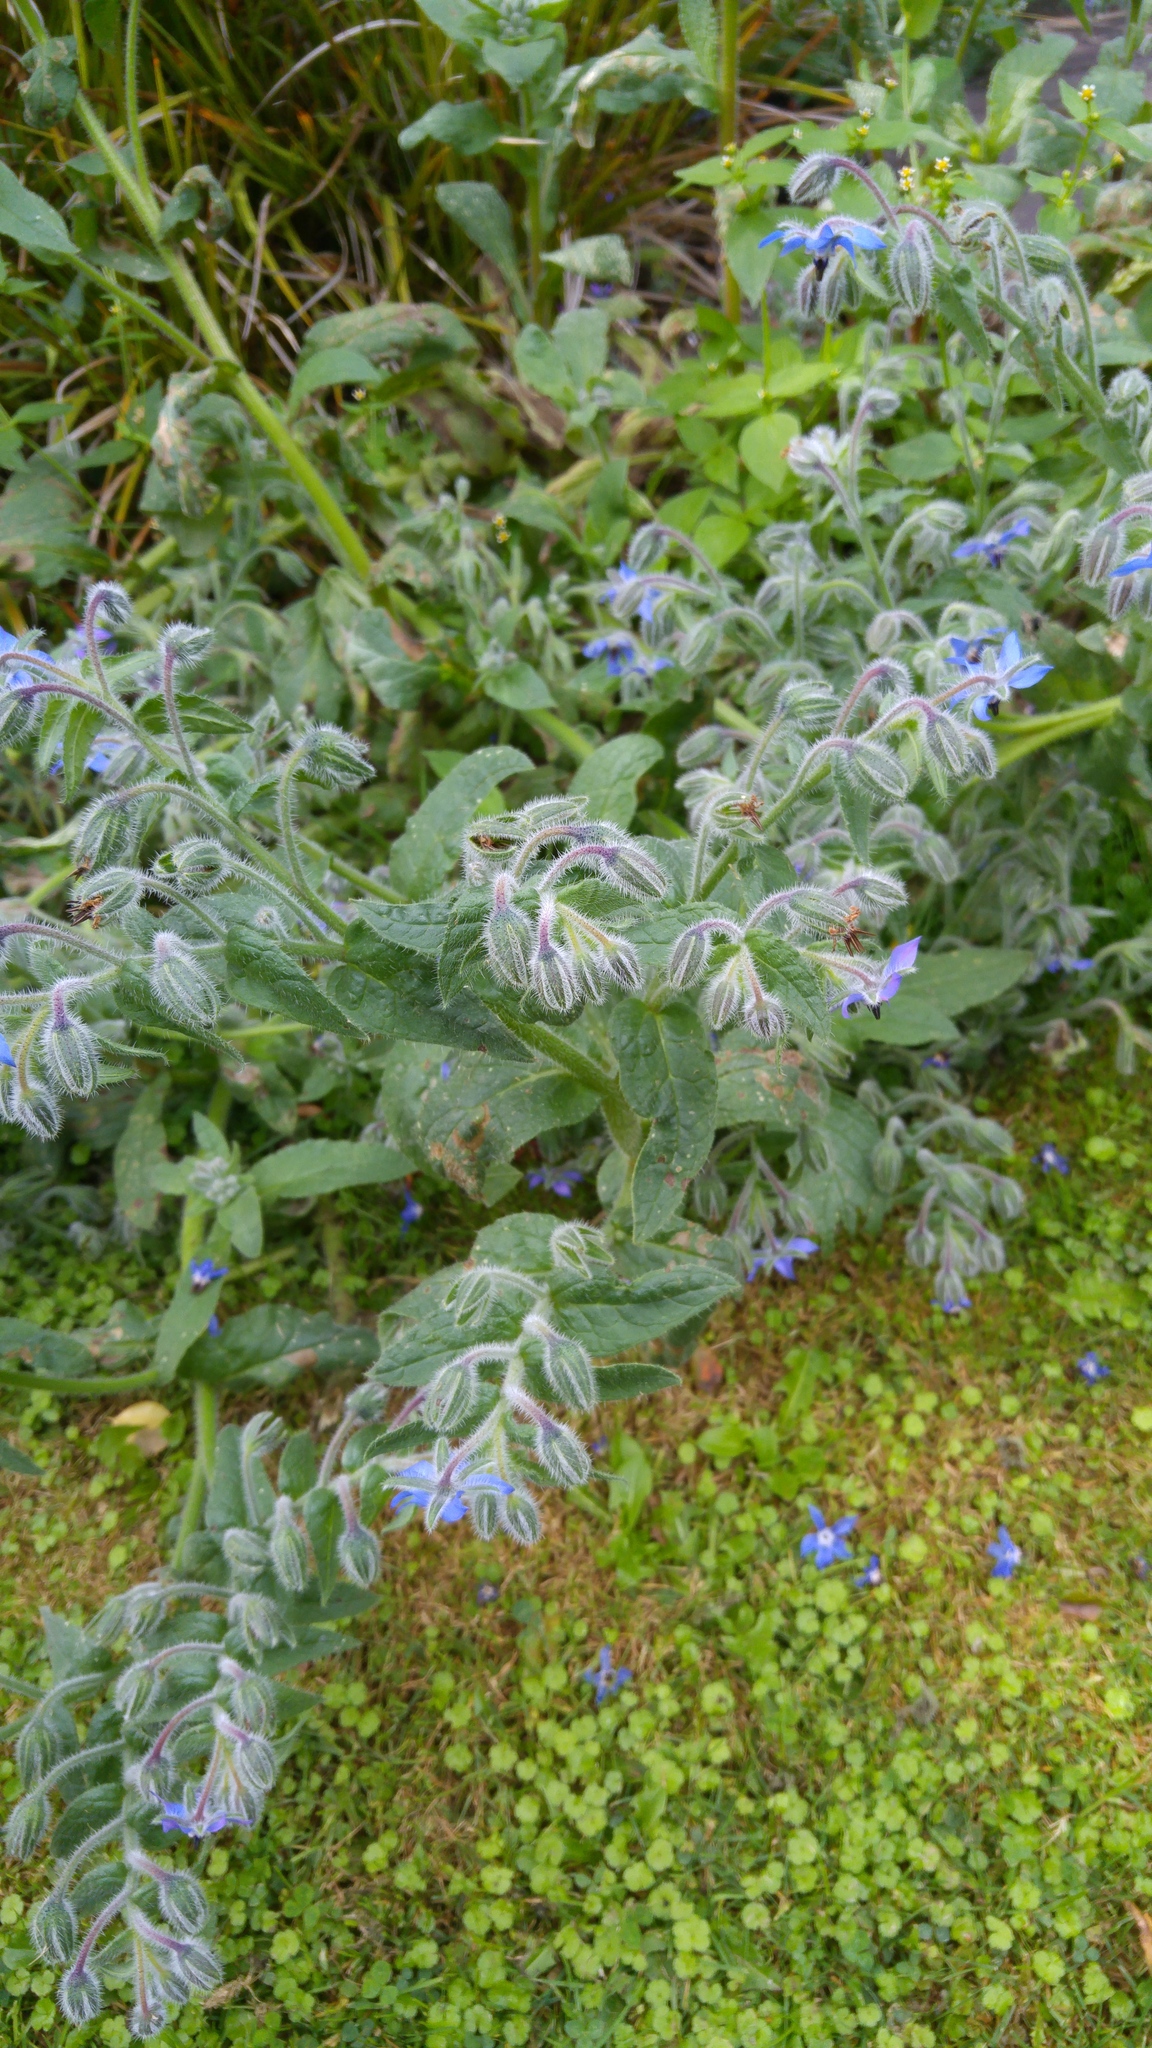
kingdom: Plantae
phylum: Tracheophyta
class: Magnoliopsida
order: Boraginales
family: Boraginaceae
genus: Borago
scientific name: Borago officinalis
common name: Borage
